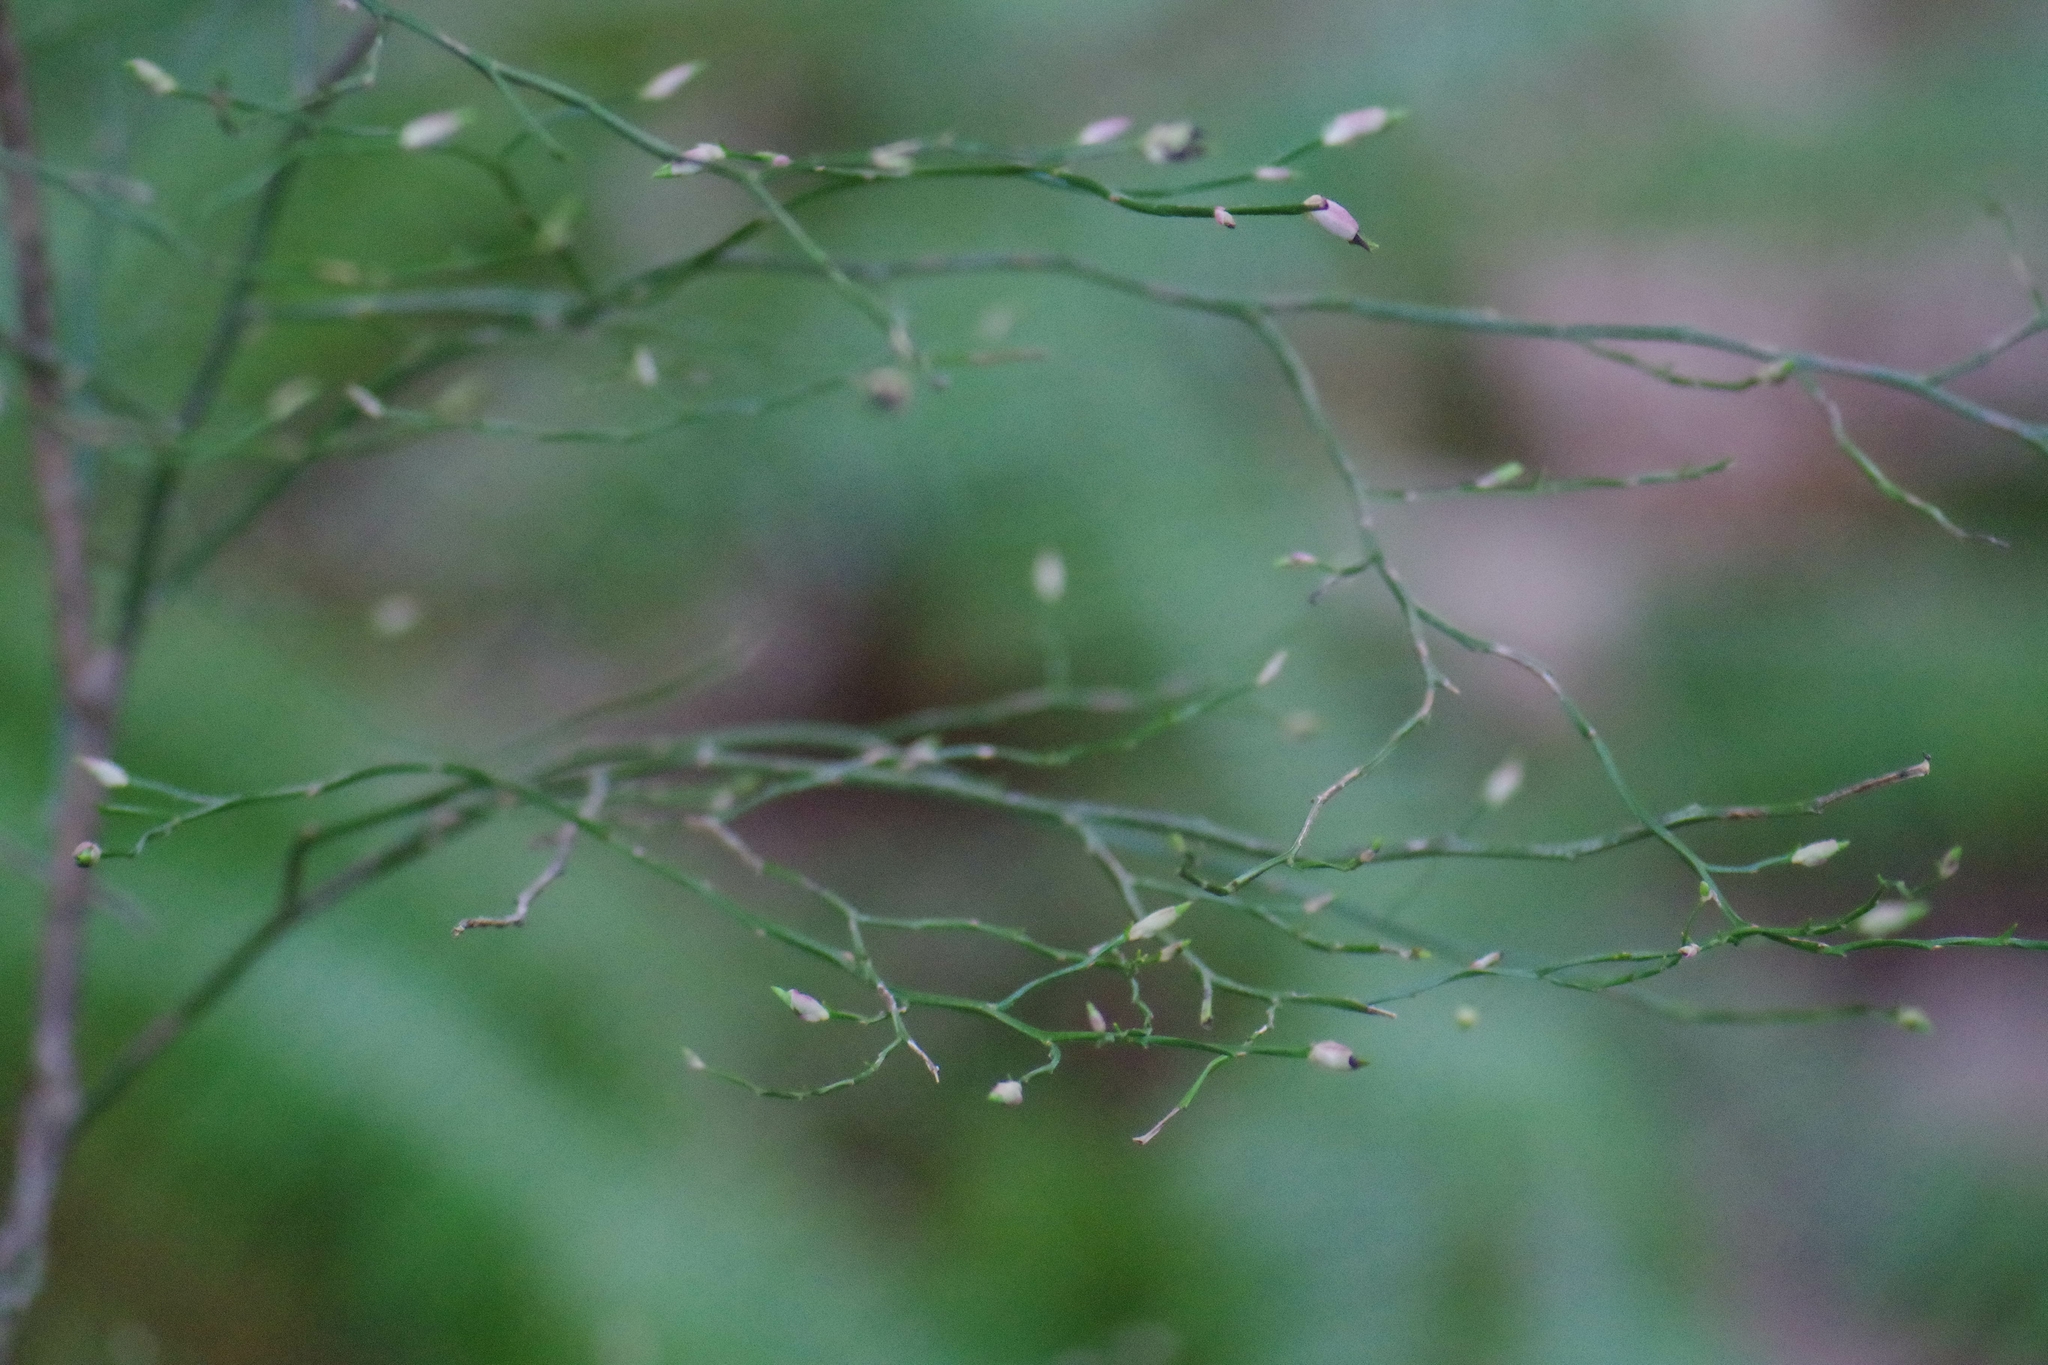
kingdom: Plantae
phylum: Tracheophyta
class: Magnoliopsida
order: Ericales
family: Ericaceae
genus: Vaccinium
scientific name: Vaccinium parvifolium
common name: Red-huckleberry
